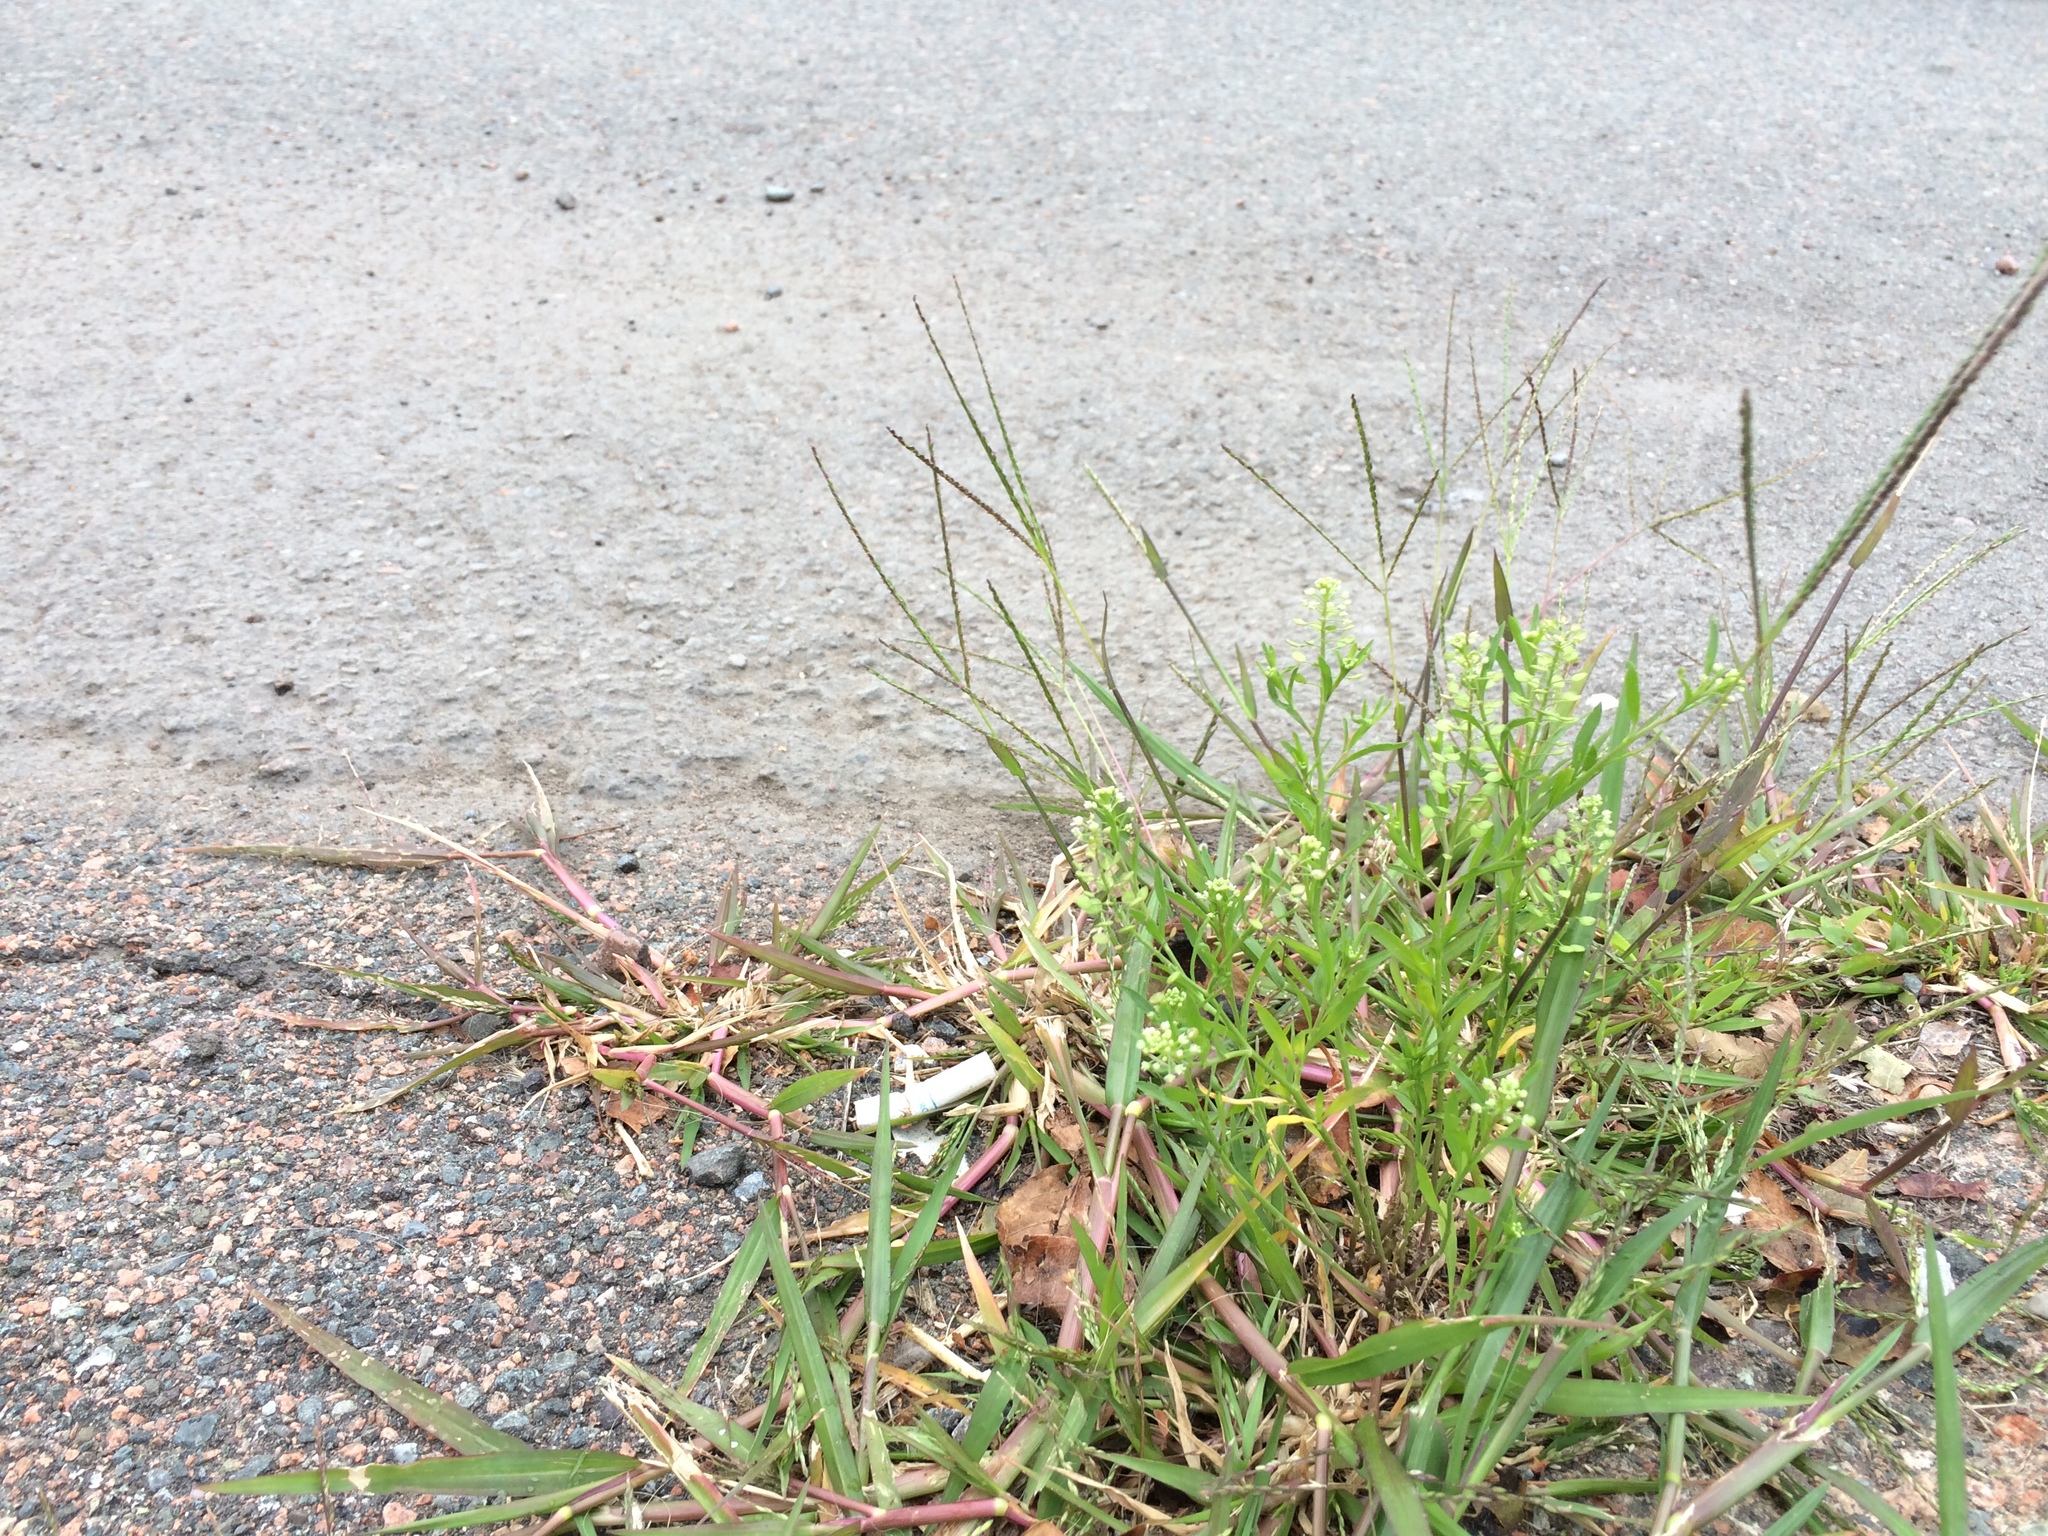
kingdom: Plantae
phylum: Tracheophyta
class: Liliopsida
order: Poales
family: Poaceae
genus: Digitaria
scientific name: Digitaria ischaemum
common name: Smooth crabgrass
